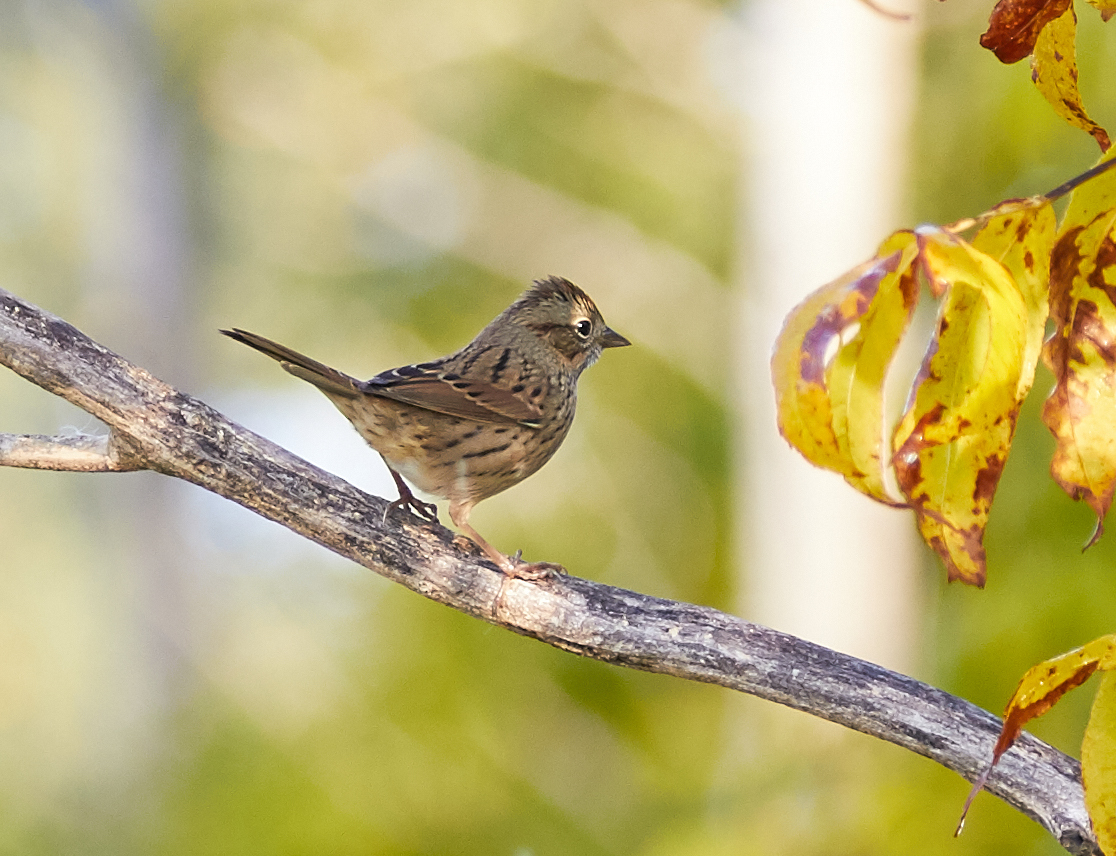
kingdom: Animalia
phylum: Chordata
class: Aves
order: Passeriformes
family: Passerellidae
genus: Melospiza
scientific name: Melospiza lincolnii
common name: Lincoln's sparrow
